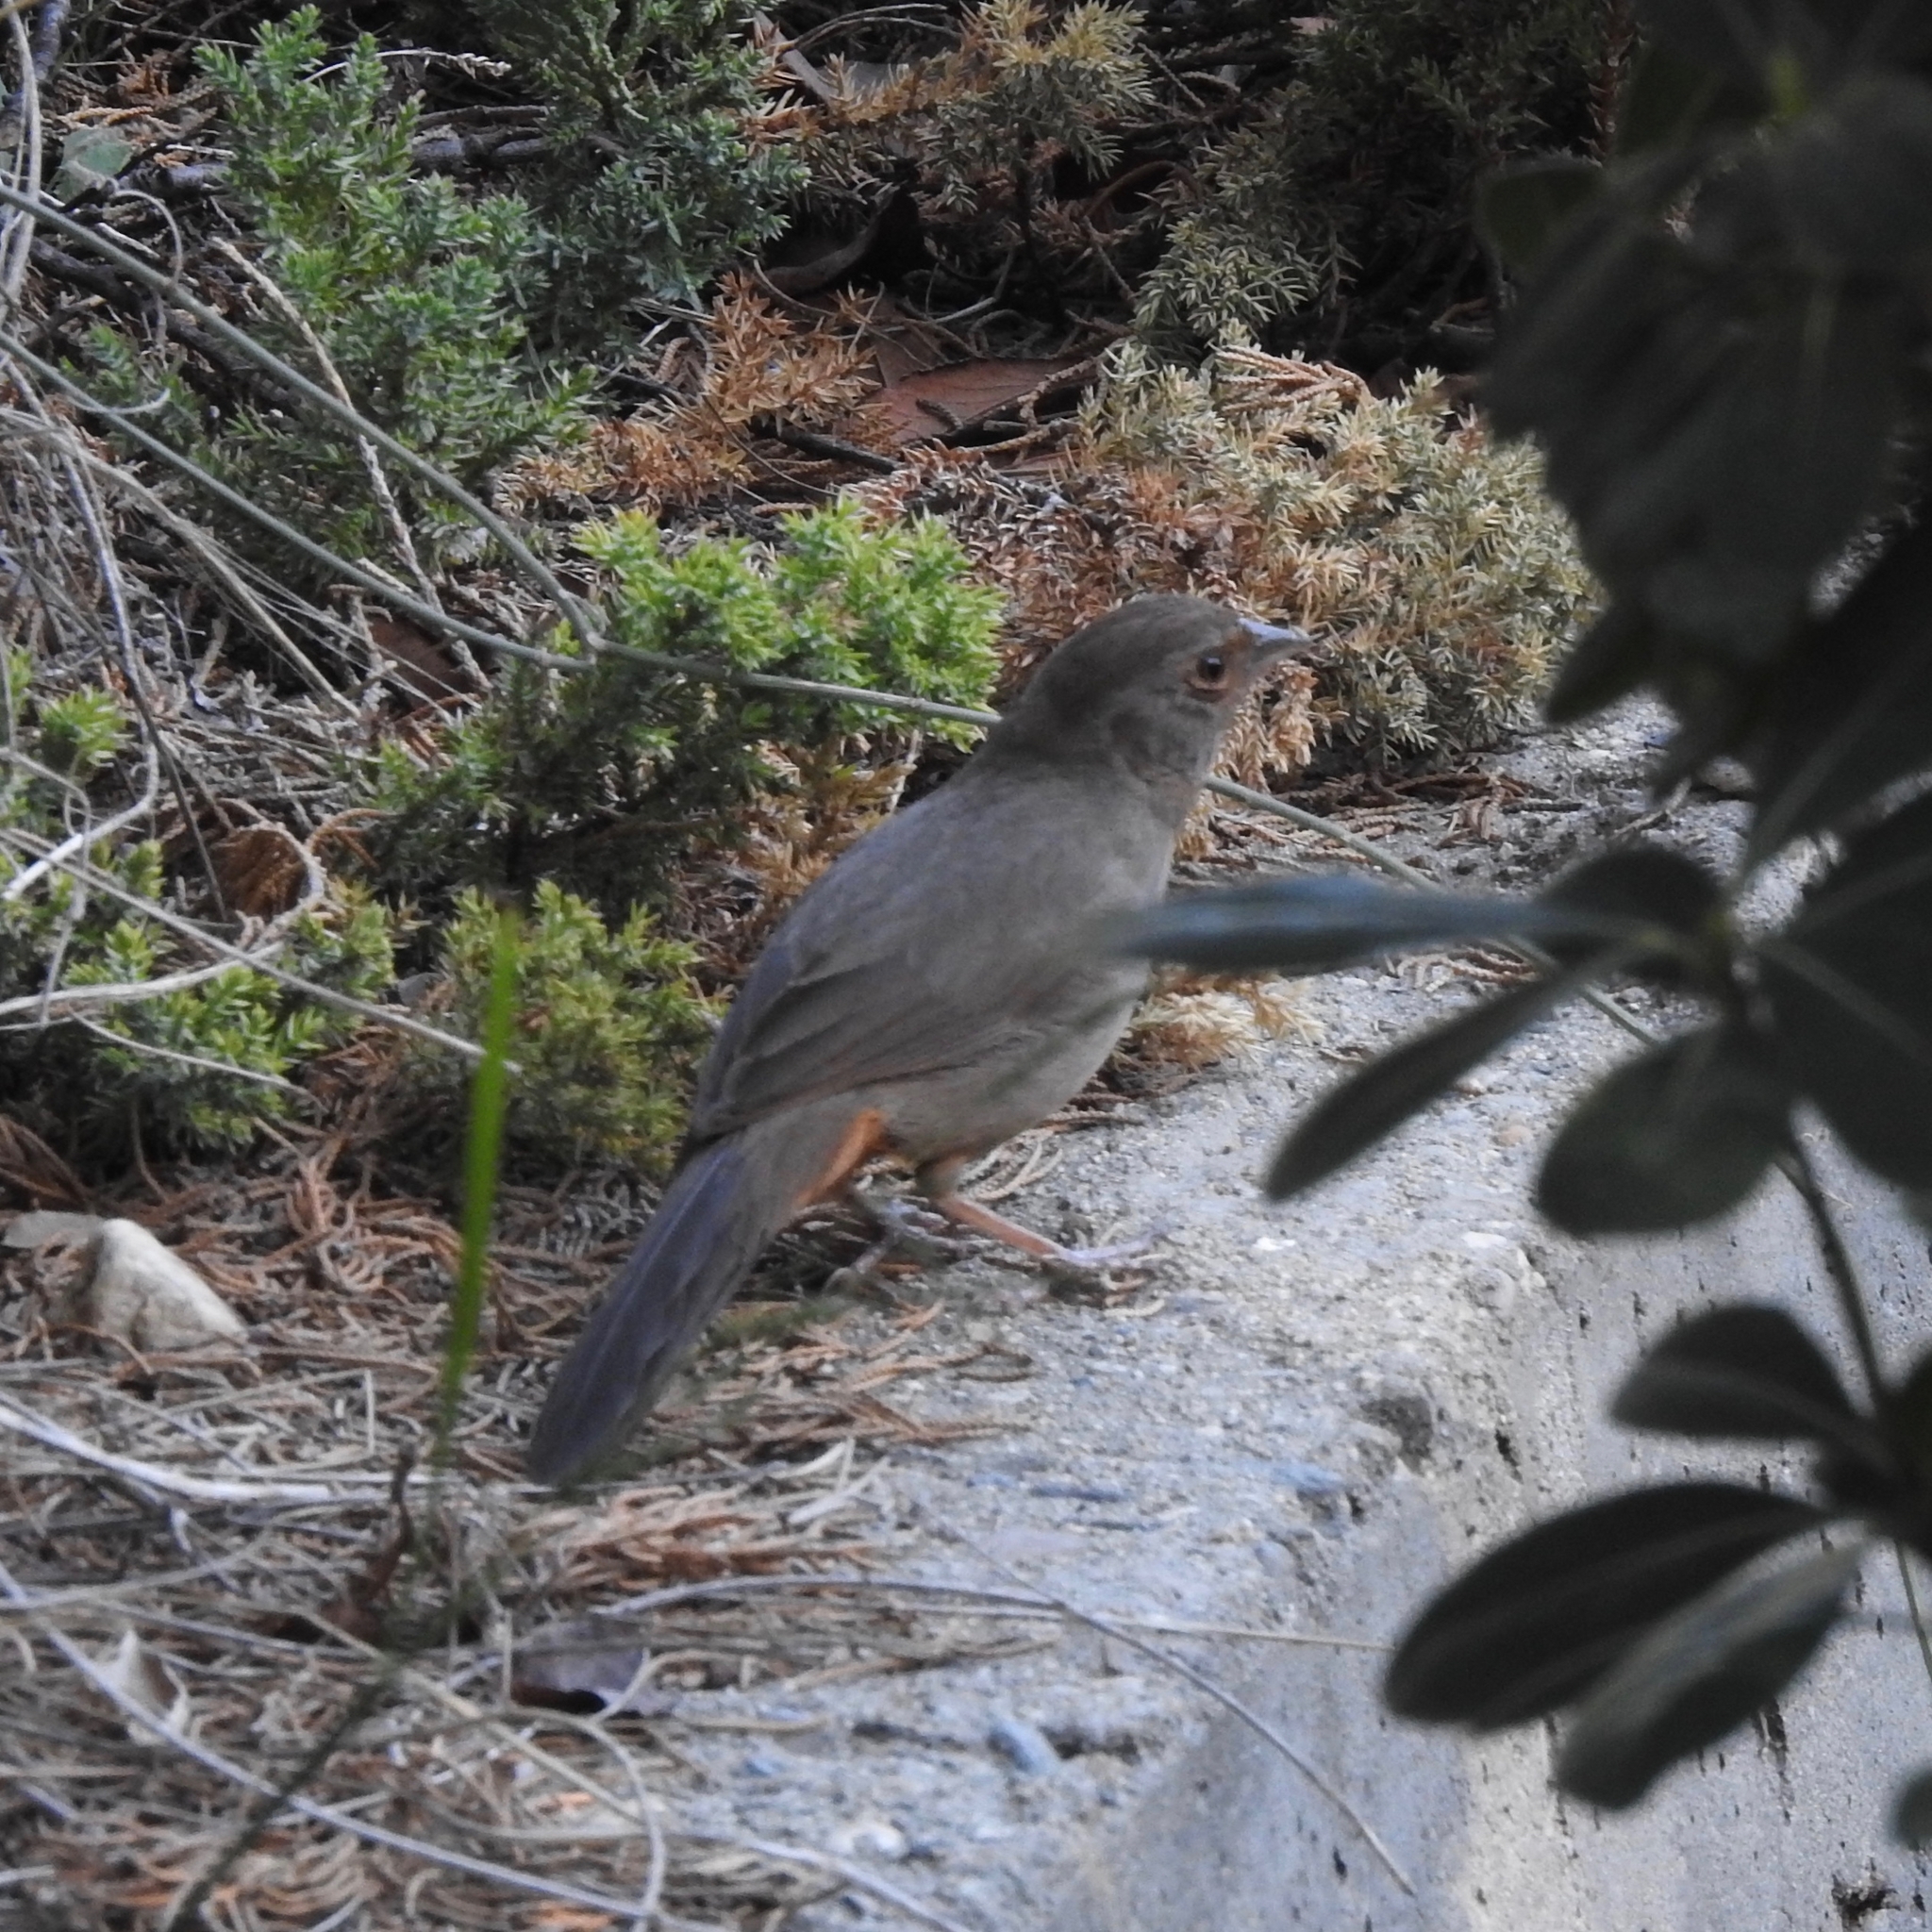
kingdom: Animalia
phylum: Chordata
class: Aves
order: Passeriformes
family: Passerellidae
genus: Melozone
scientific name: Melozone crissalis
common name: California towhee
